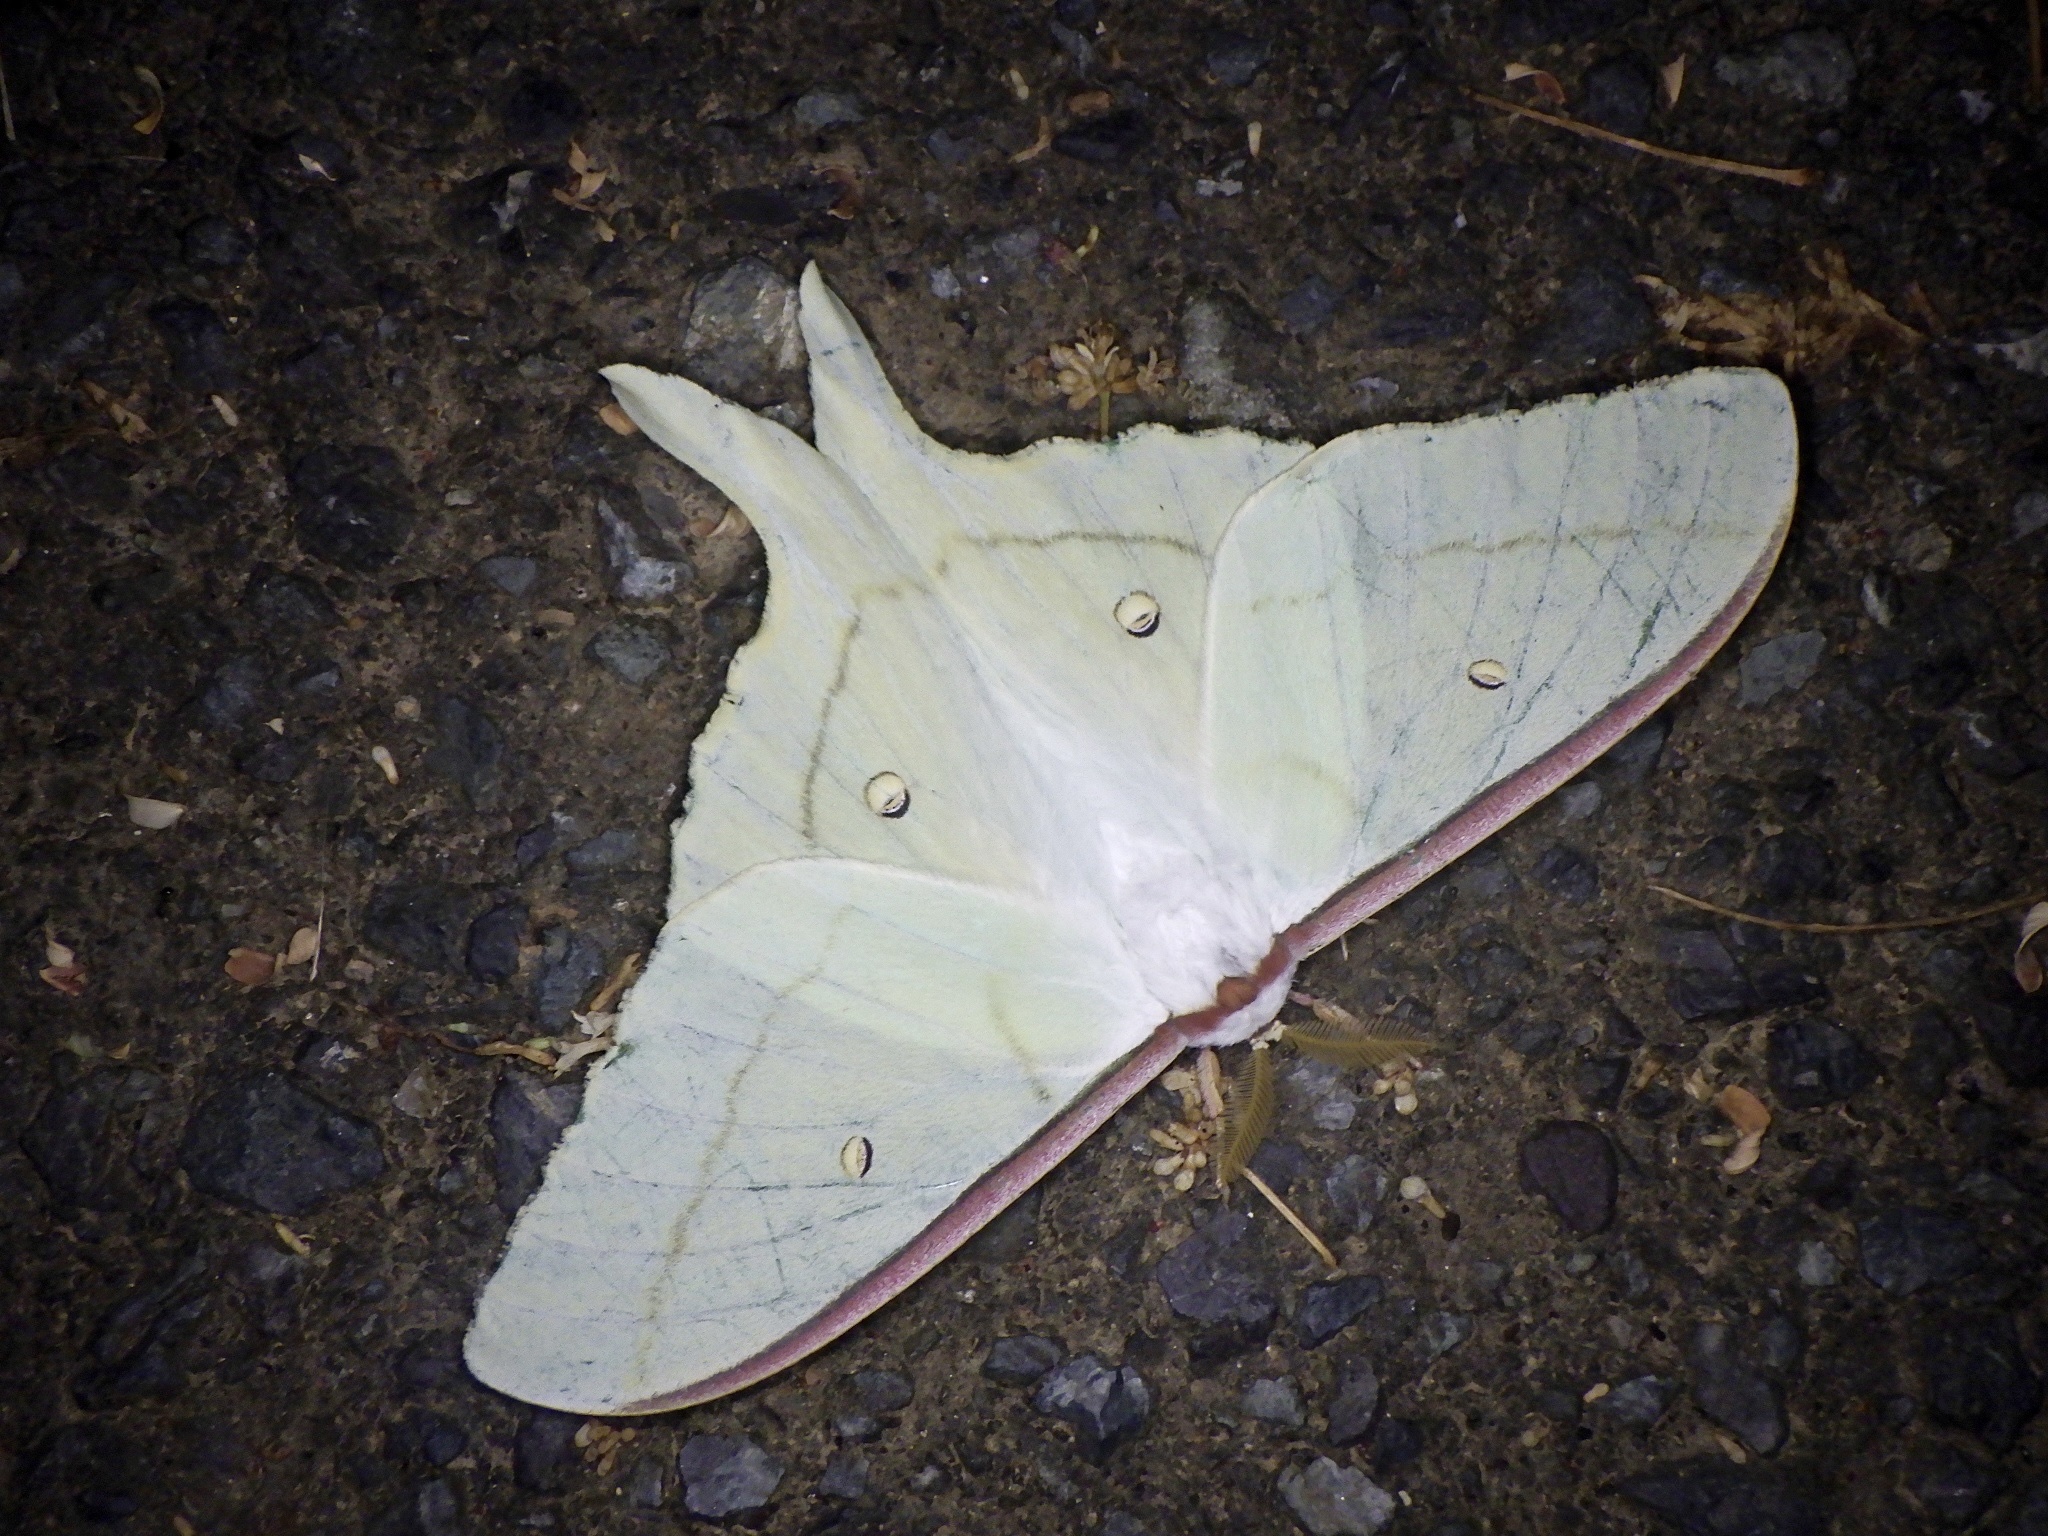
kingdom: Animalia
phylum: Arthropoda
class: Insecta
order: Lepidoptera
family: Saturniidae
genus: Actias
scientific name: Actias aliena
